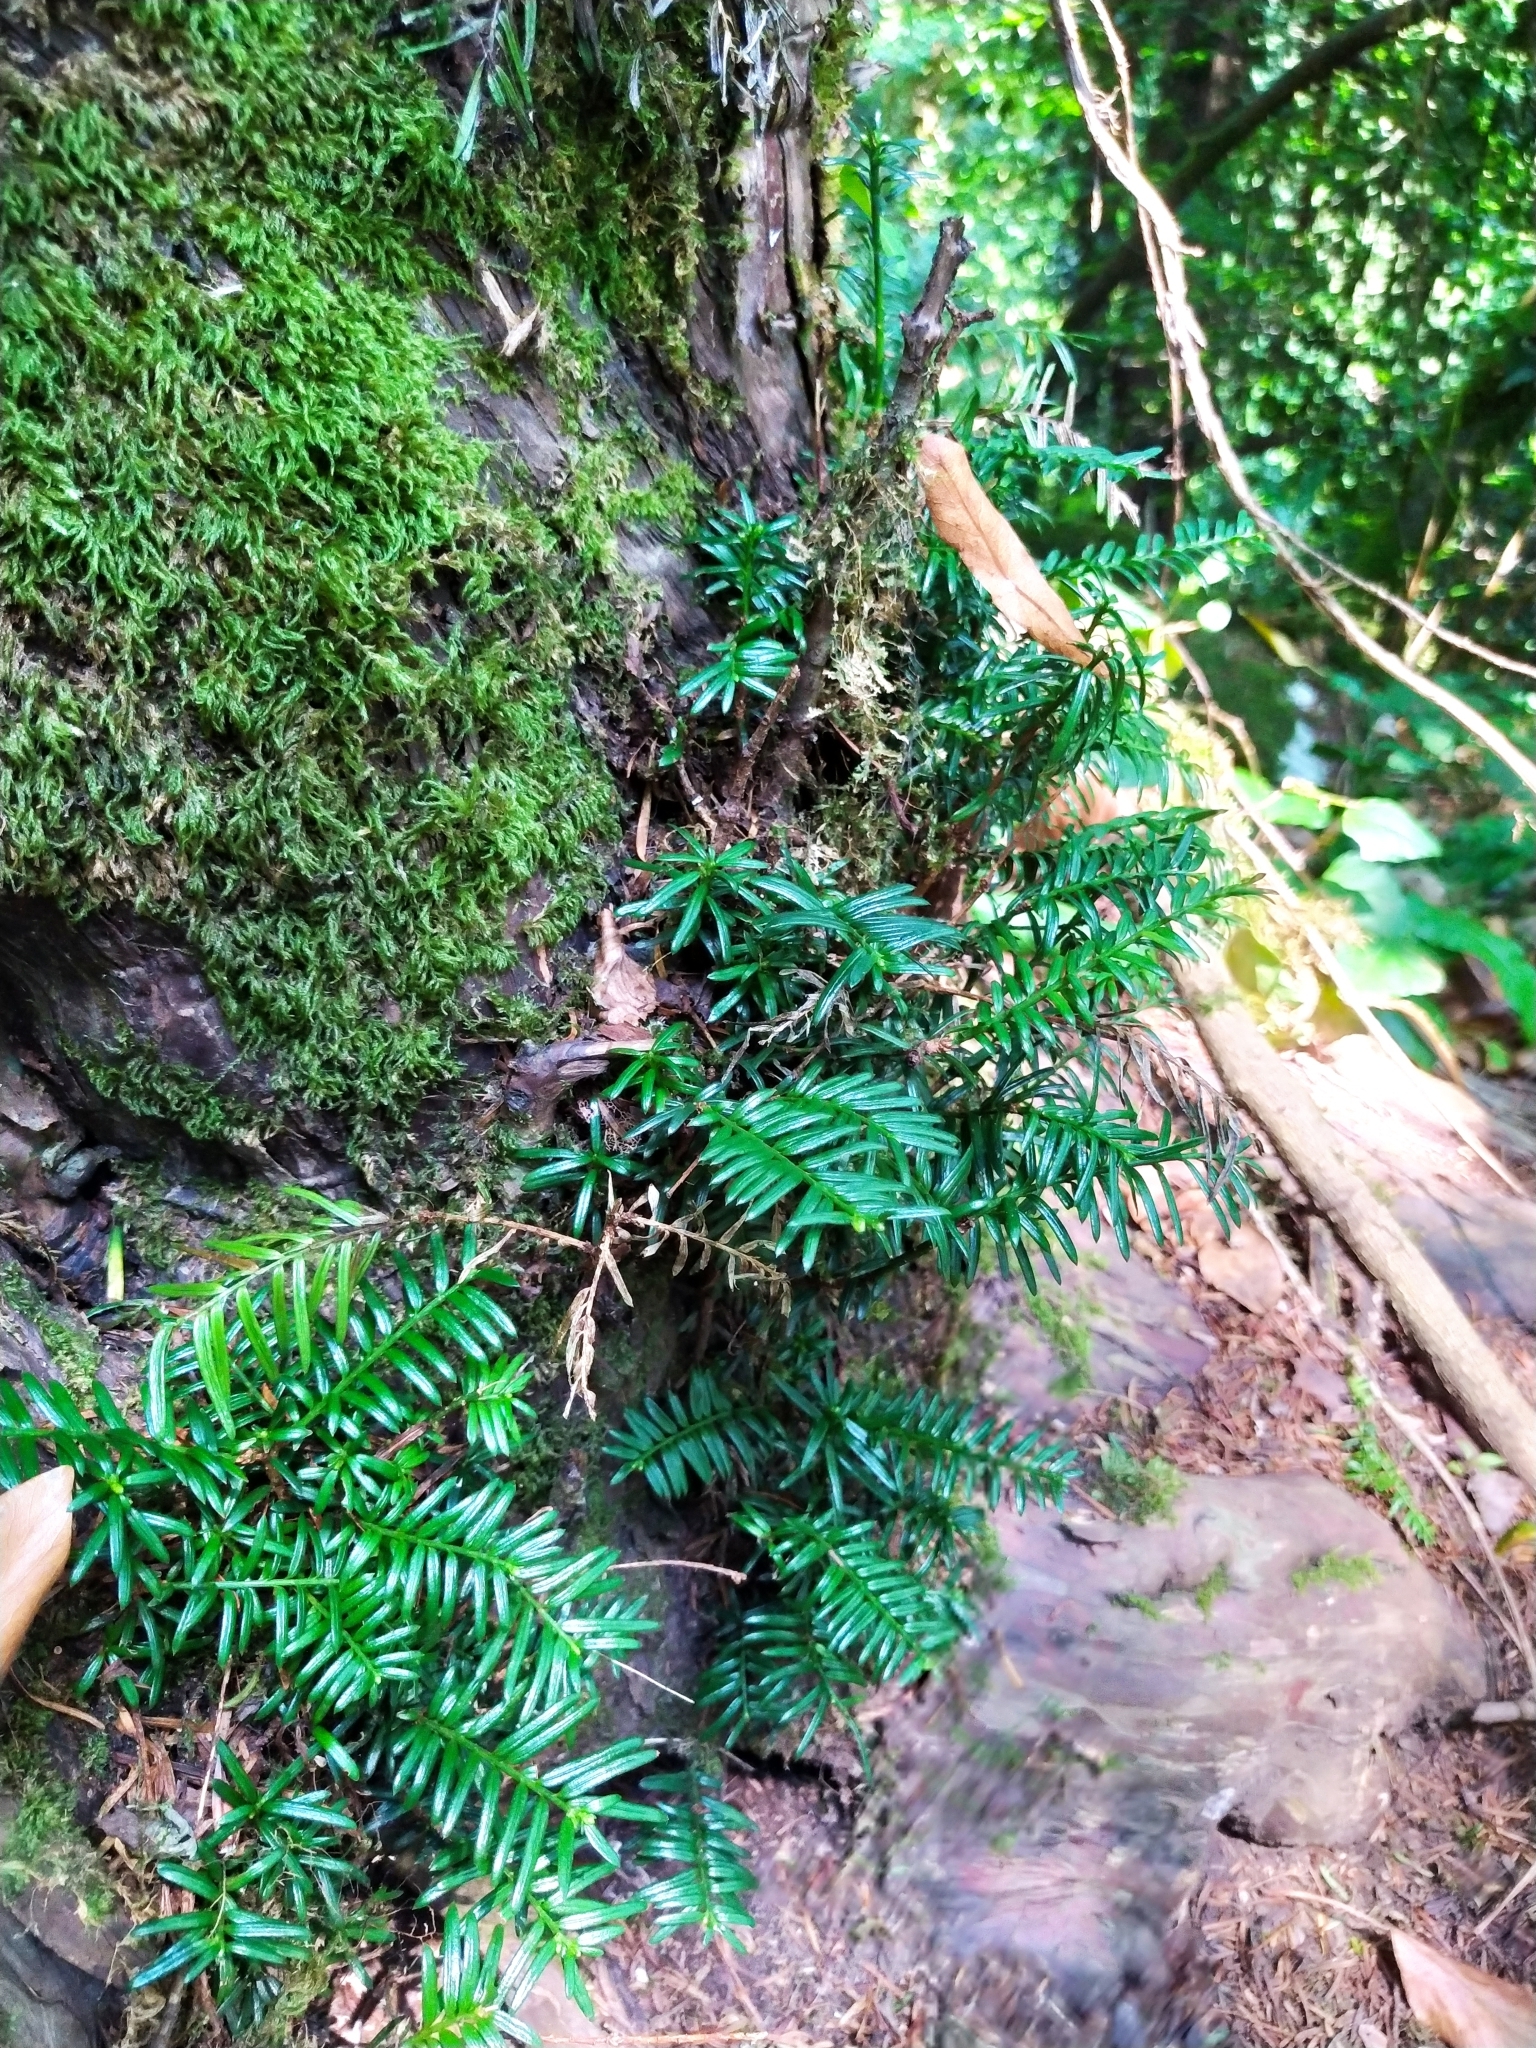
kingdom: Plantae
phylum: Tracheophyta
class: Pinopsida
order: Pinales
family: Taxaceae
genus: Taxus
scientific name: Taxus baccata
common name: Yew
